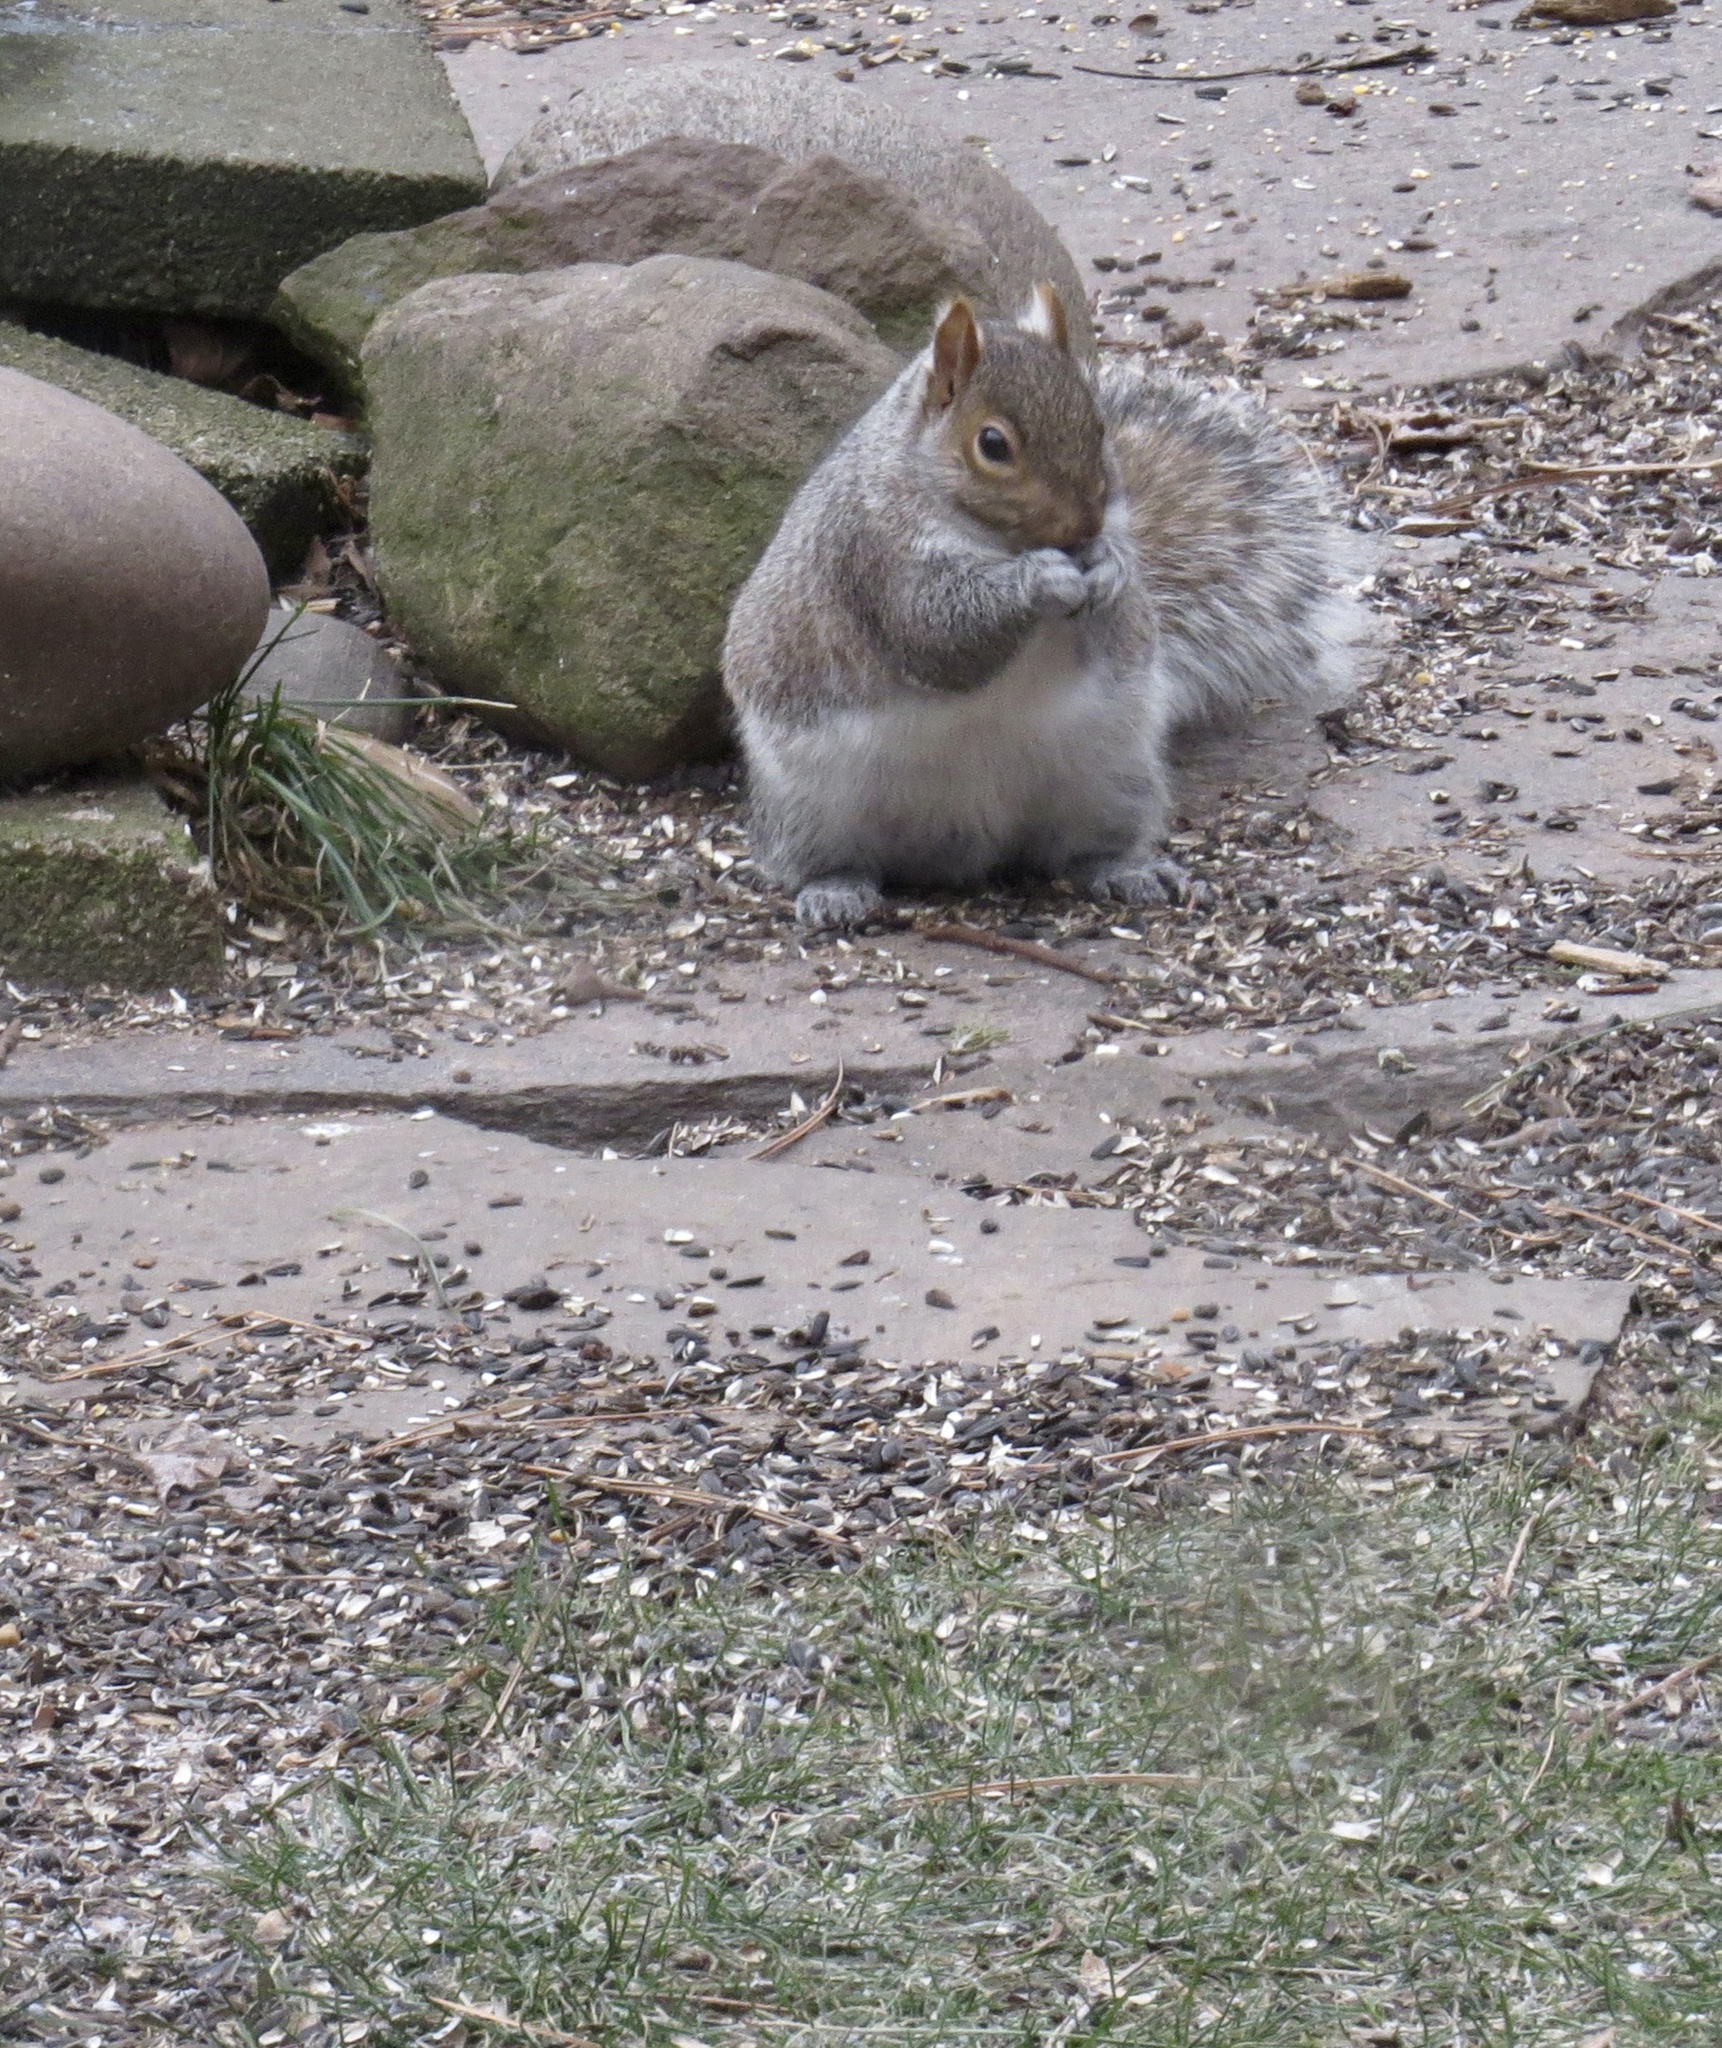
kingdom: Animalia
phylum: Chordata
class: Mammalia
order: Rodentia
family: Sciuridae
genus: Sciurus
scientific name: Sciurus carolinensis
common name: Eastern gray squirrel
